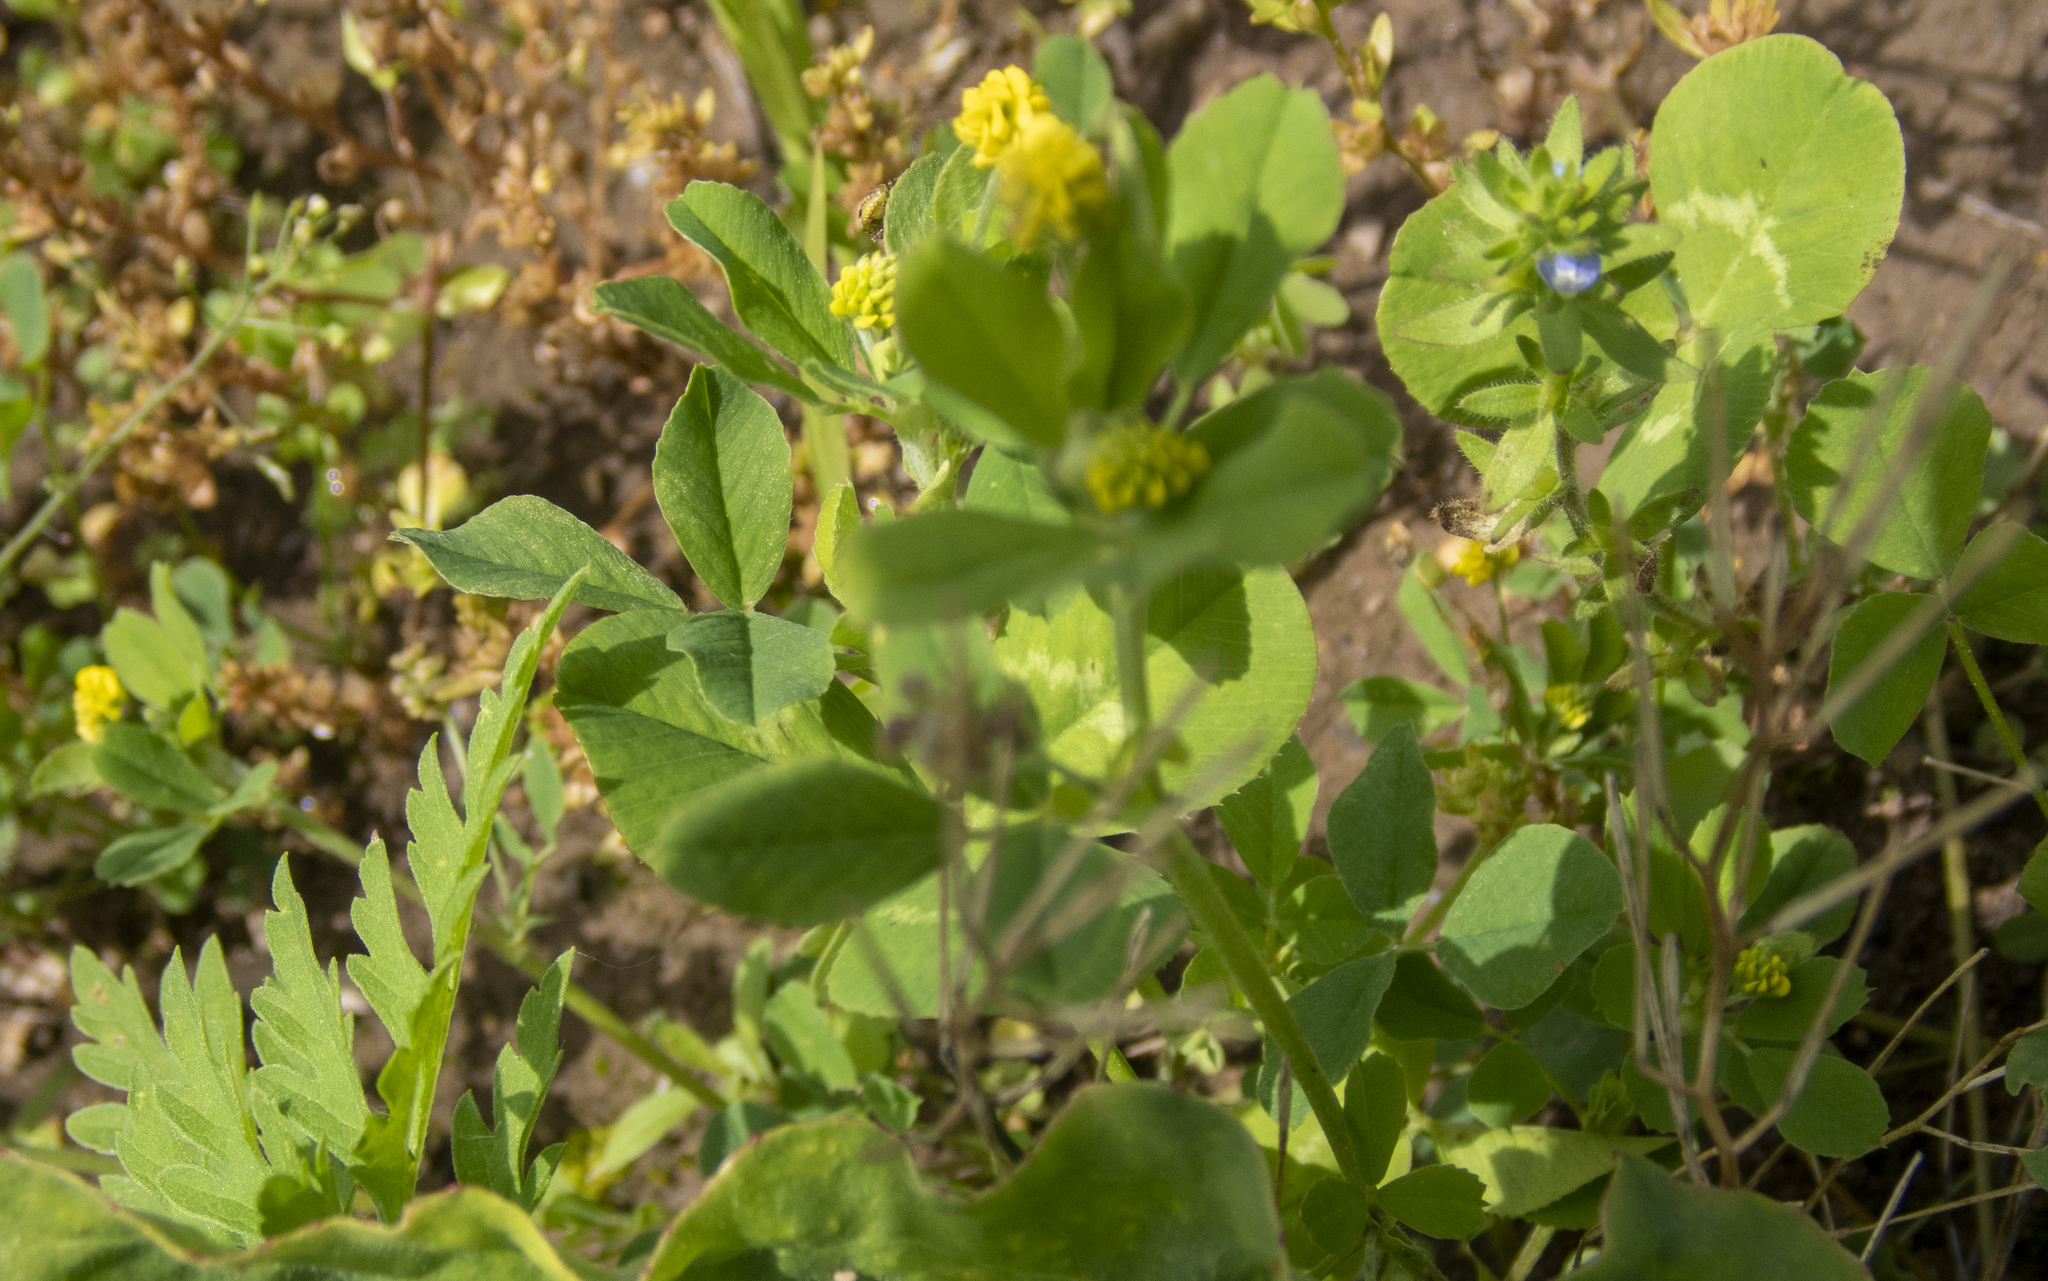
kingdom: Plantae
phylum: Tracheophyta
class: Magnoliopsida
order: Fabales
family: Fabaceae
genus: Medicago
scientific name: Medicago lupulina
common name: Black medick
